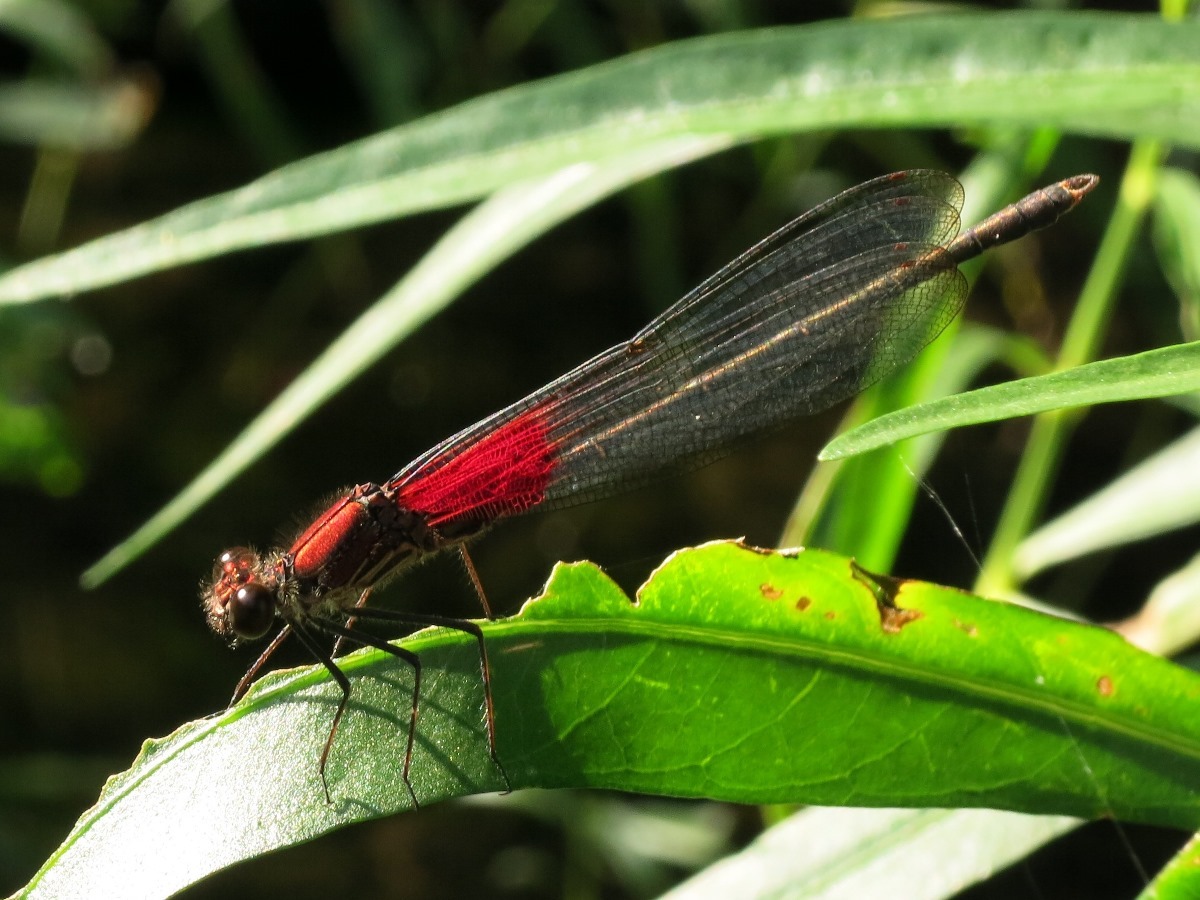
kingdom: Animalia
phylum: Arthropoda
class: Insecta
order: Odonata
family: Calopterygidae
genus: Hetaerina
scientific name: Hetaerina americana
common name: American rubyspot
